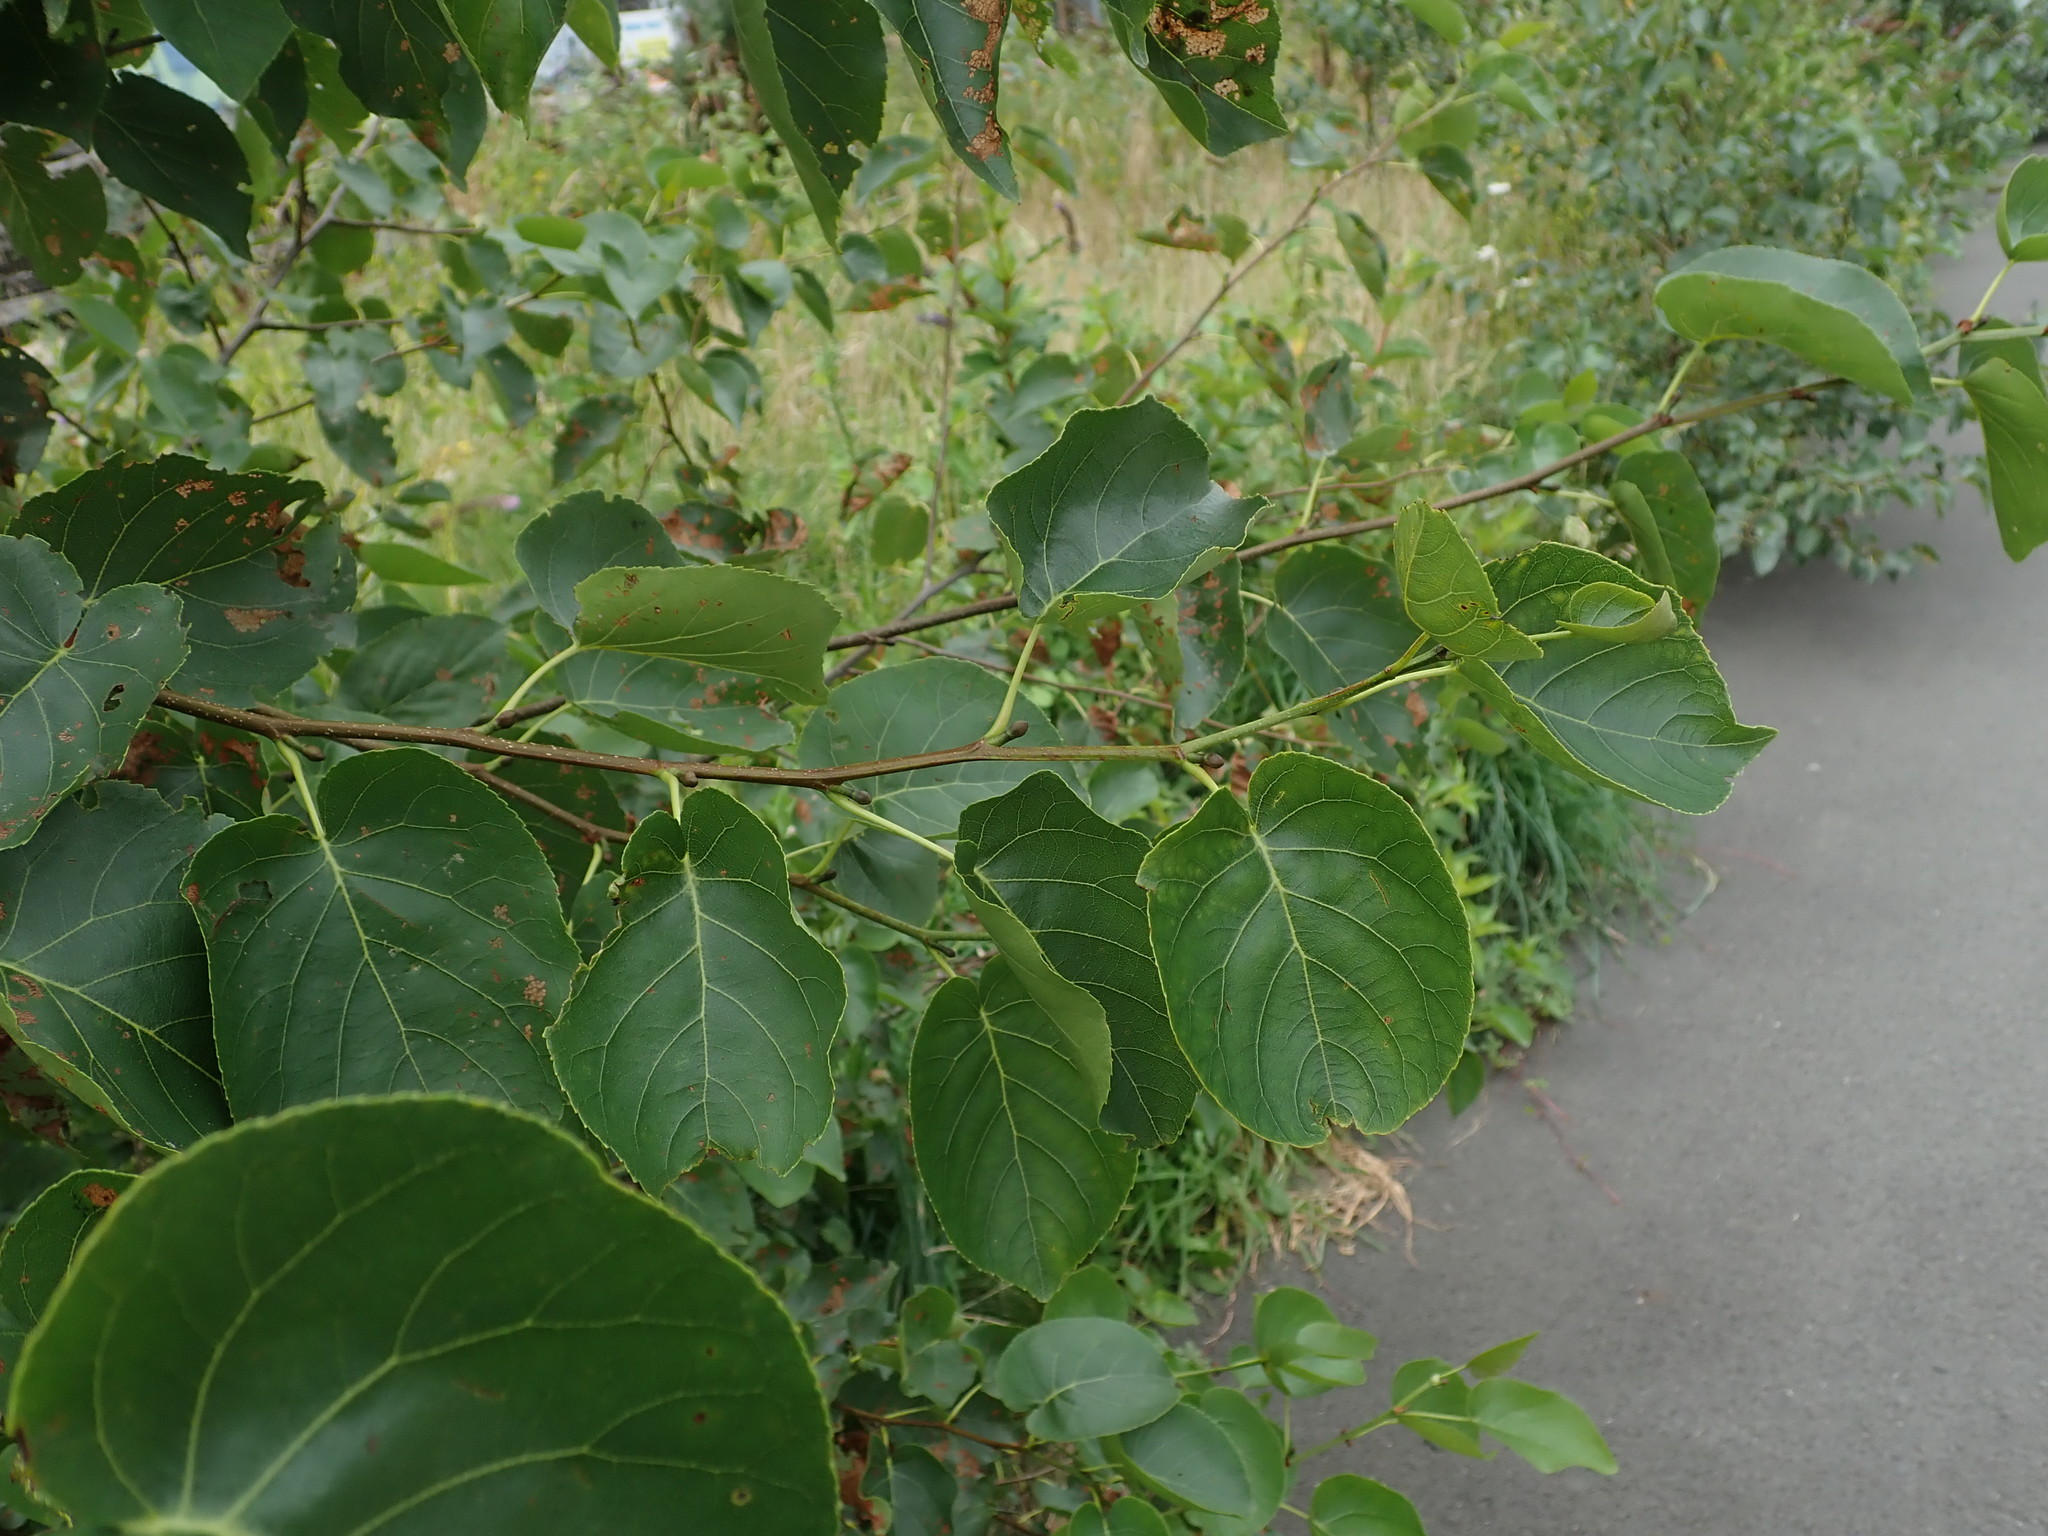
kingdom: Plantae
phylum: Tracheophyta
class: Magnoliopsida
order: Fagales
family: Betulaceae
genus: Alnus
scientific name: Alnus cordata
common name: Italian alder
